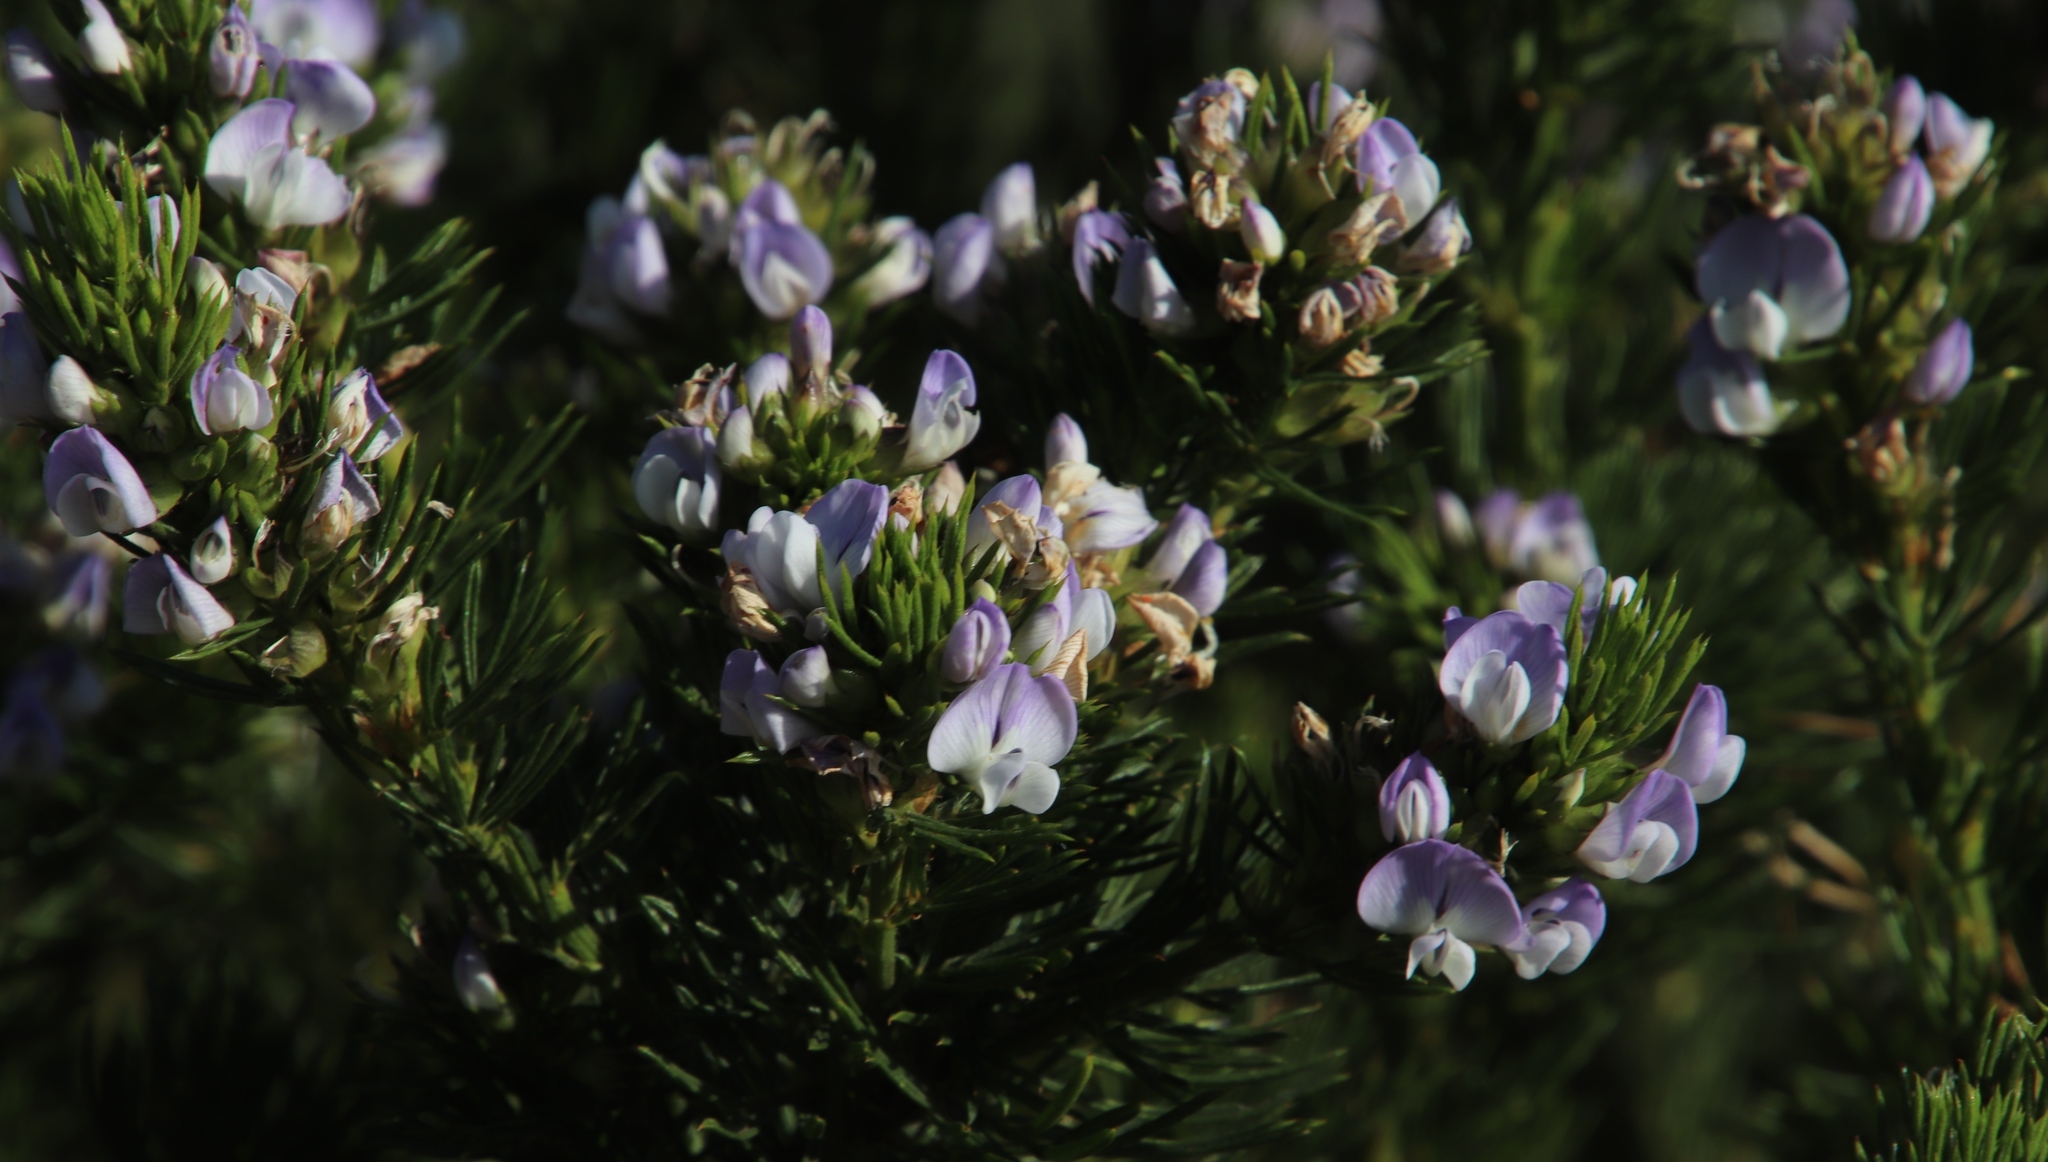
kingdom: Plantae
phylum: Tracheophyta
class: Magnoliopsida
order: Fabales
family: Fabaceae
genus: Psoralea
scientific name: Psoralea pinnata
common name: African scurfpea
